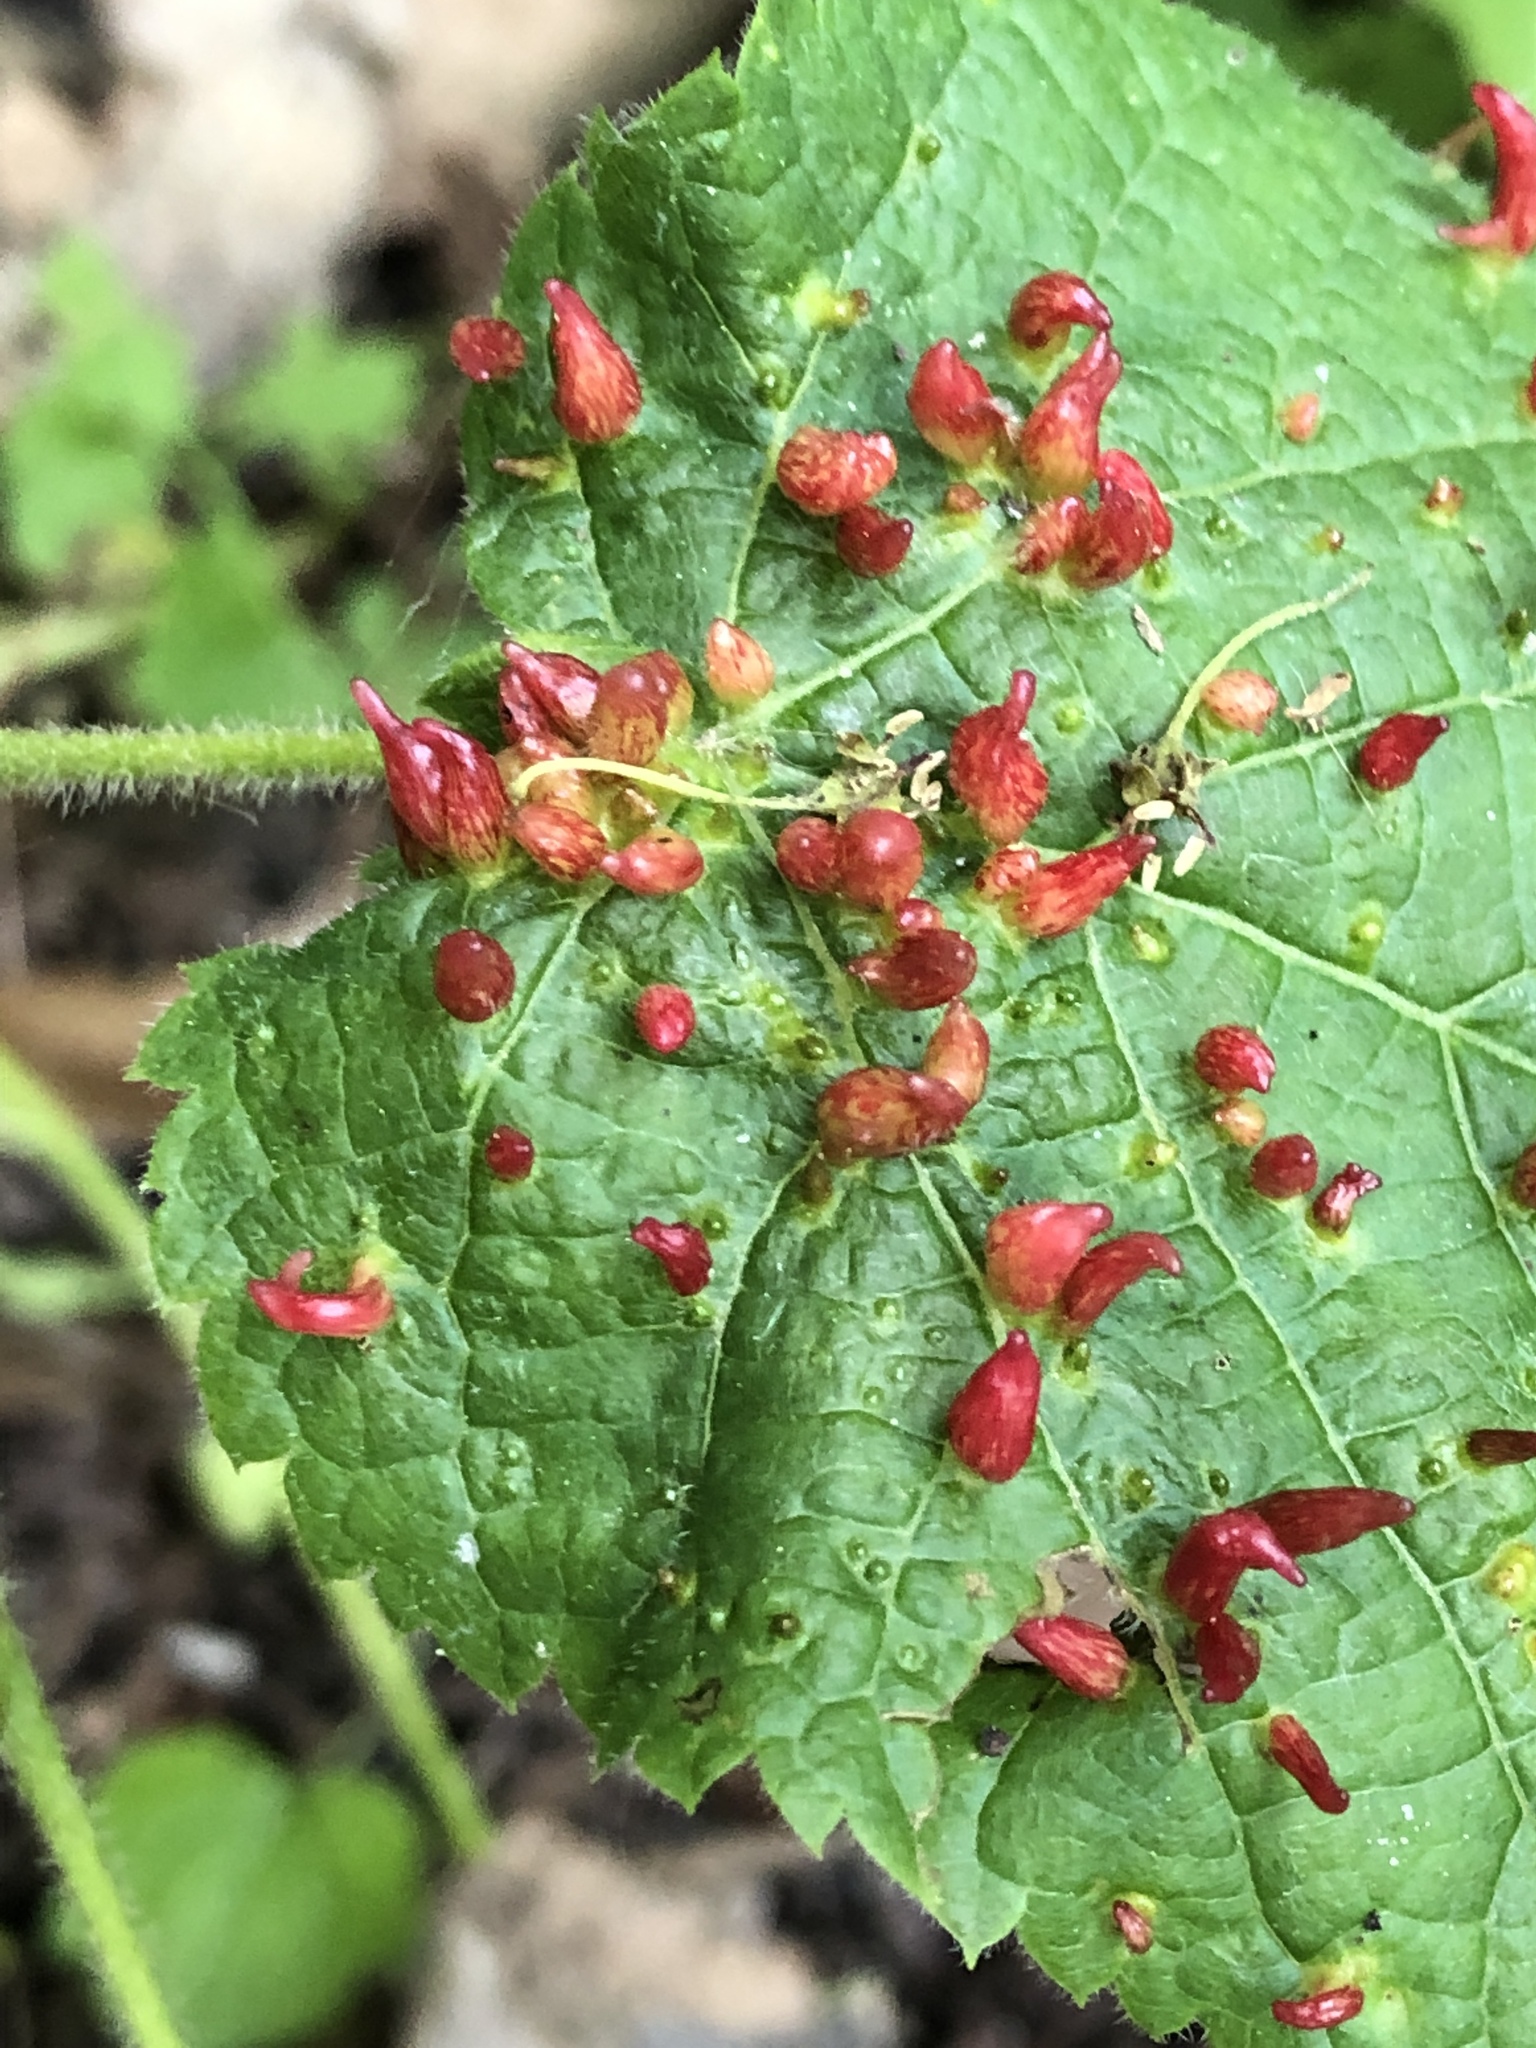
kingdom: Animalia
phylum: Arthropoda
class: Arachnida
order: Trombidiformes
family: Eriophyidae
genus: Eriophyes
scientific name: Eriophyes tiliae
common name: Red nail gall mite
